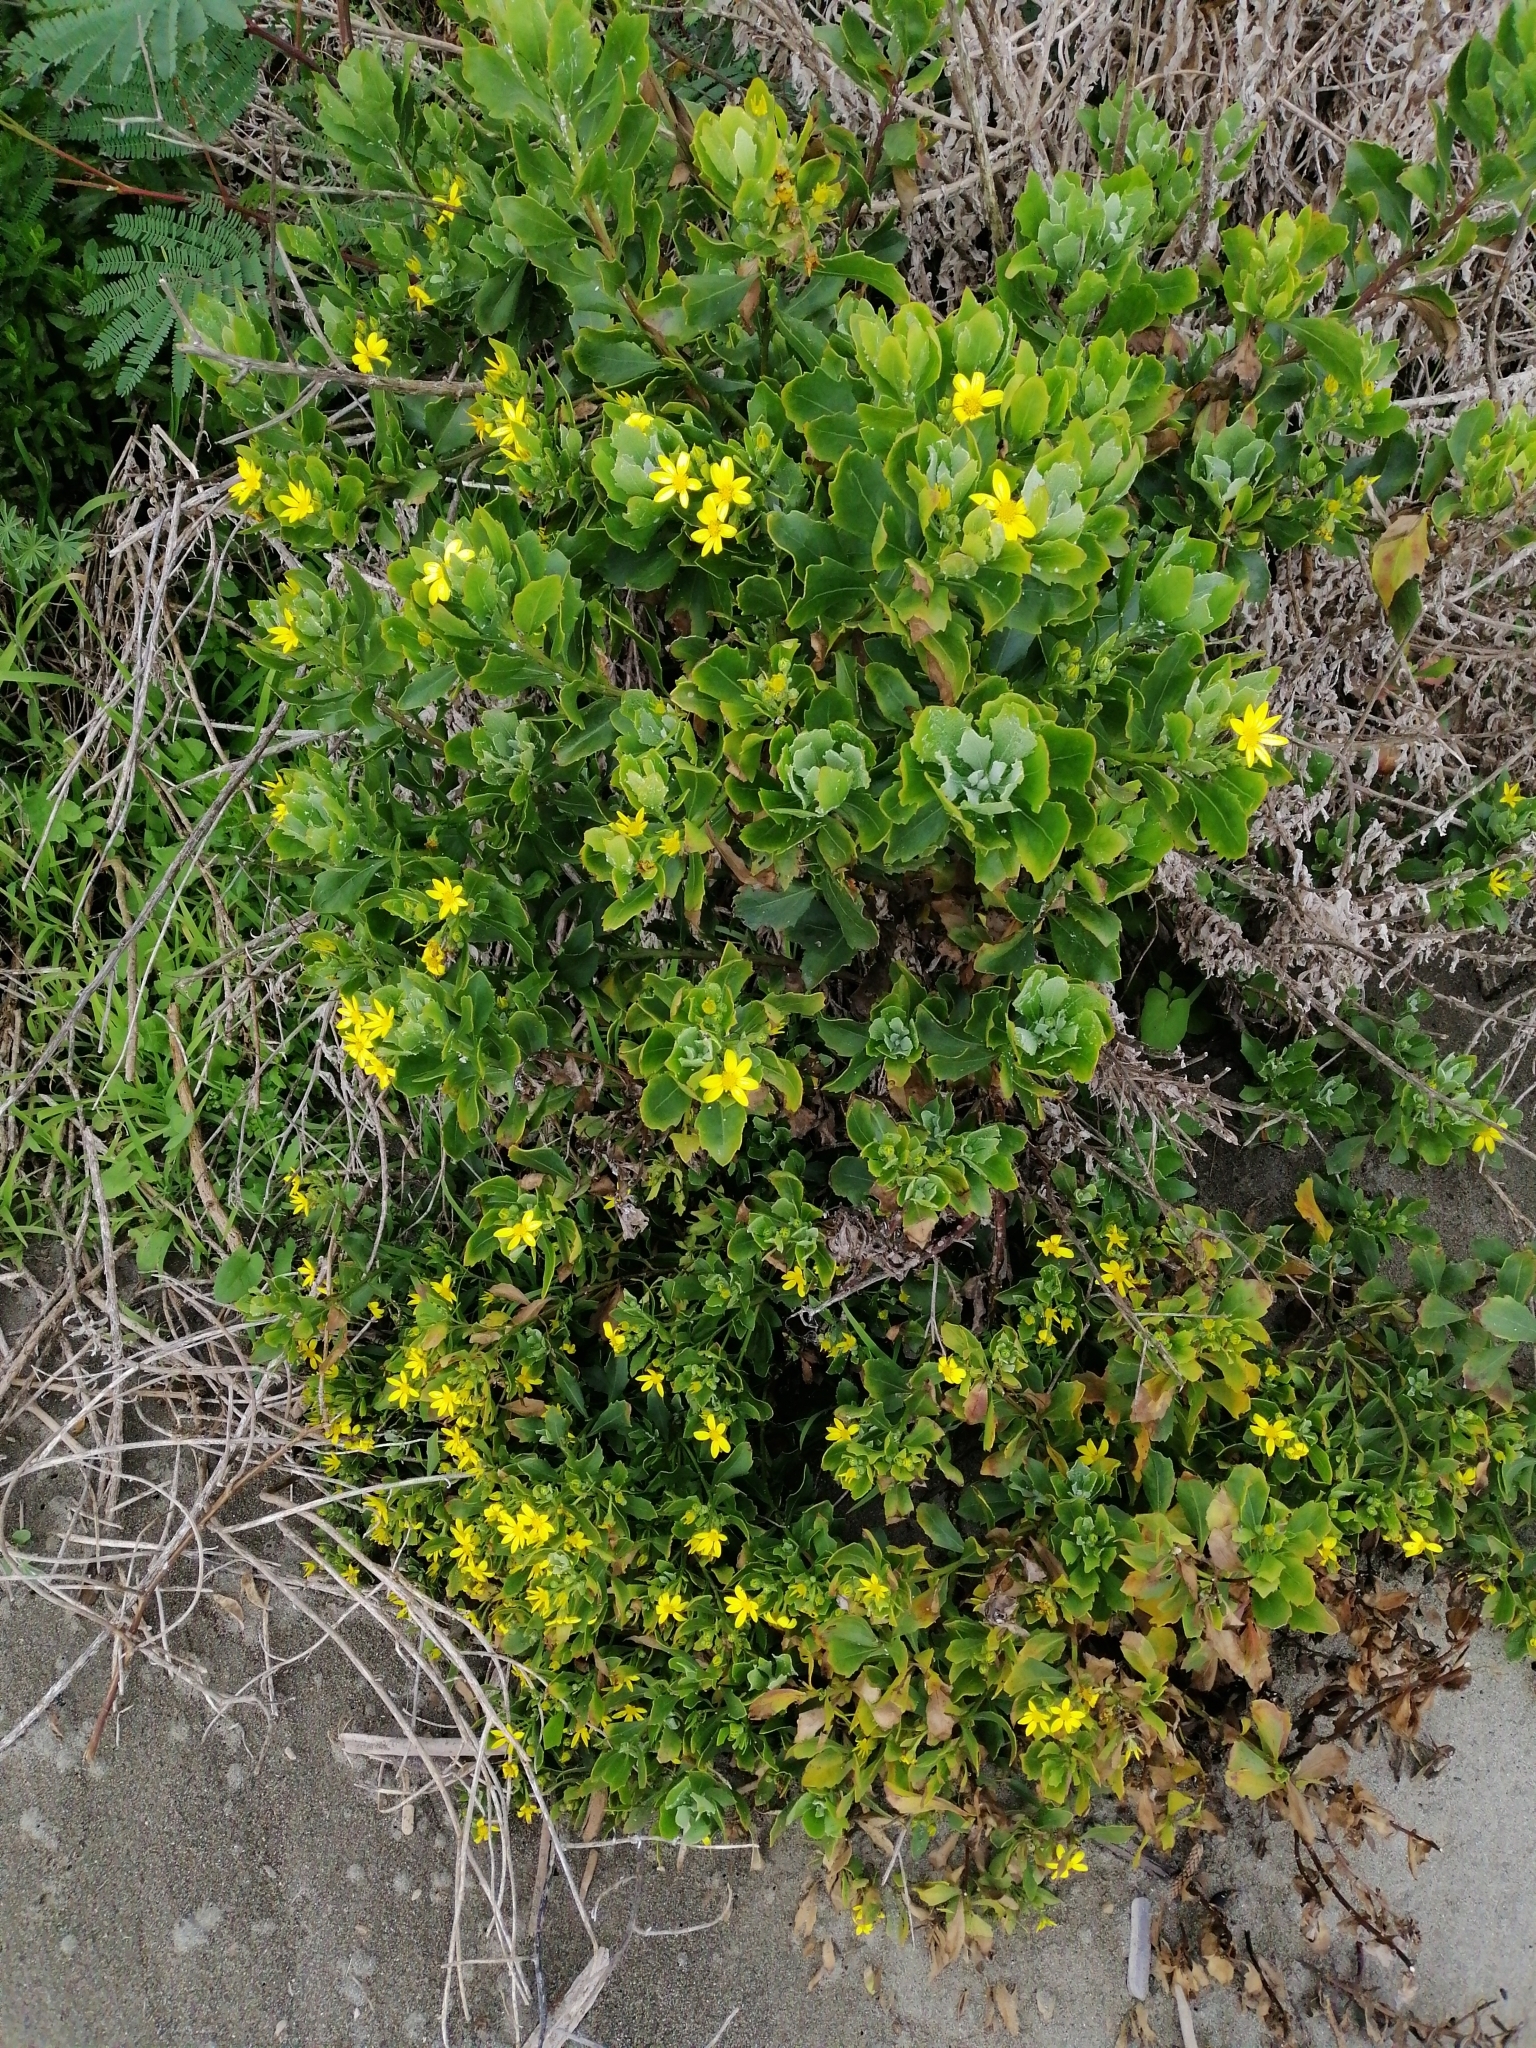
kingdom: Plantae
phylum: Tracheophyta
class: Magnoliopsida
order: Asterales
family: Asteraceae
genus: Osteospermum
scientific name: Osteospermum moniliferum
